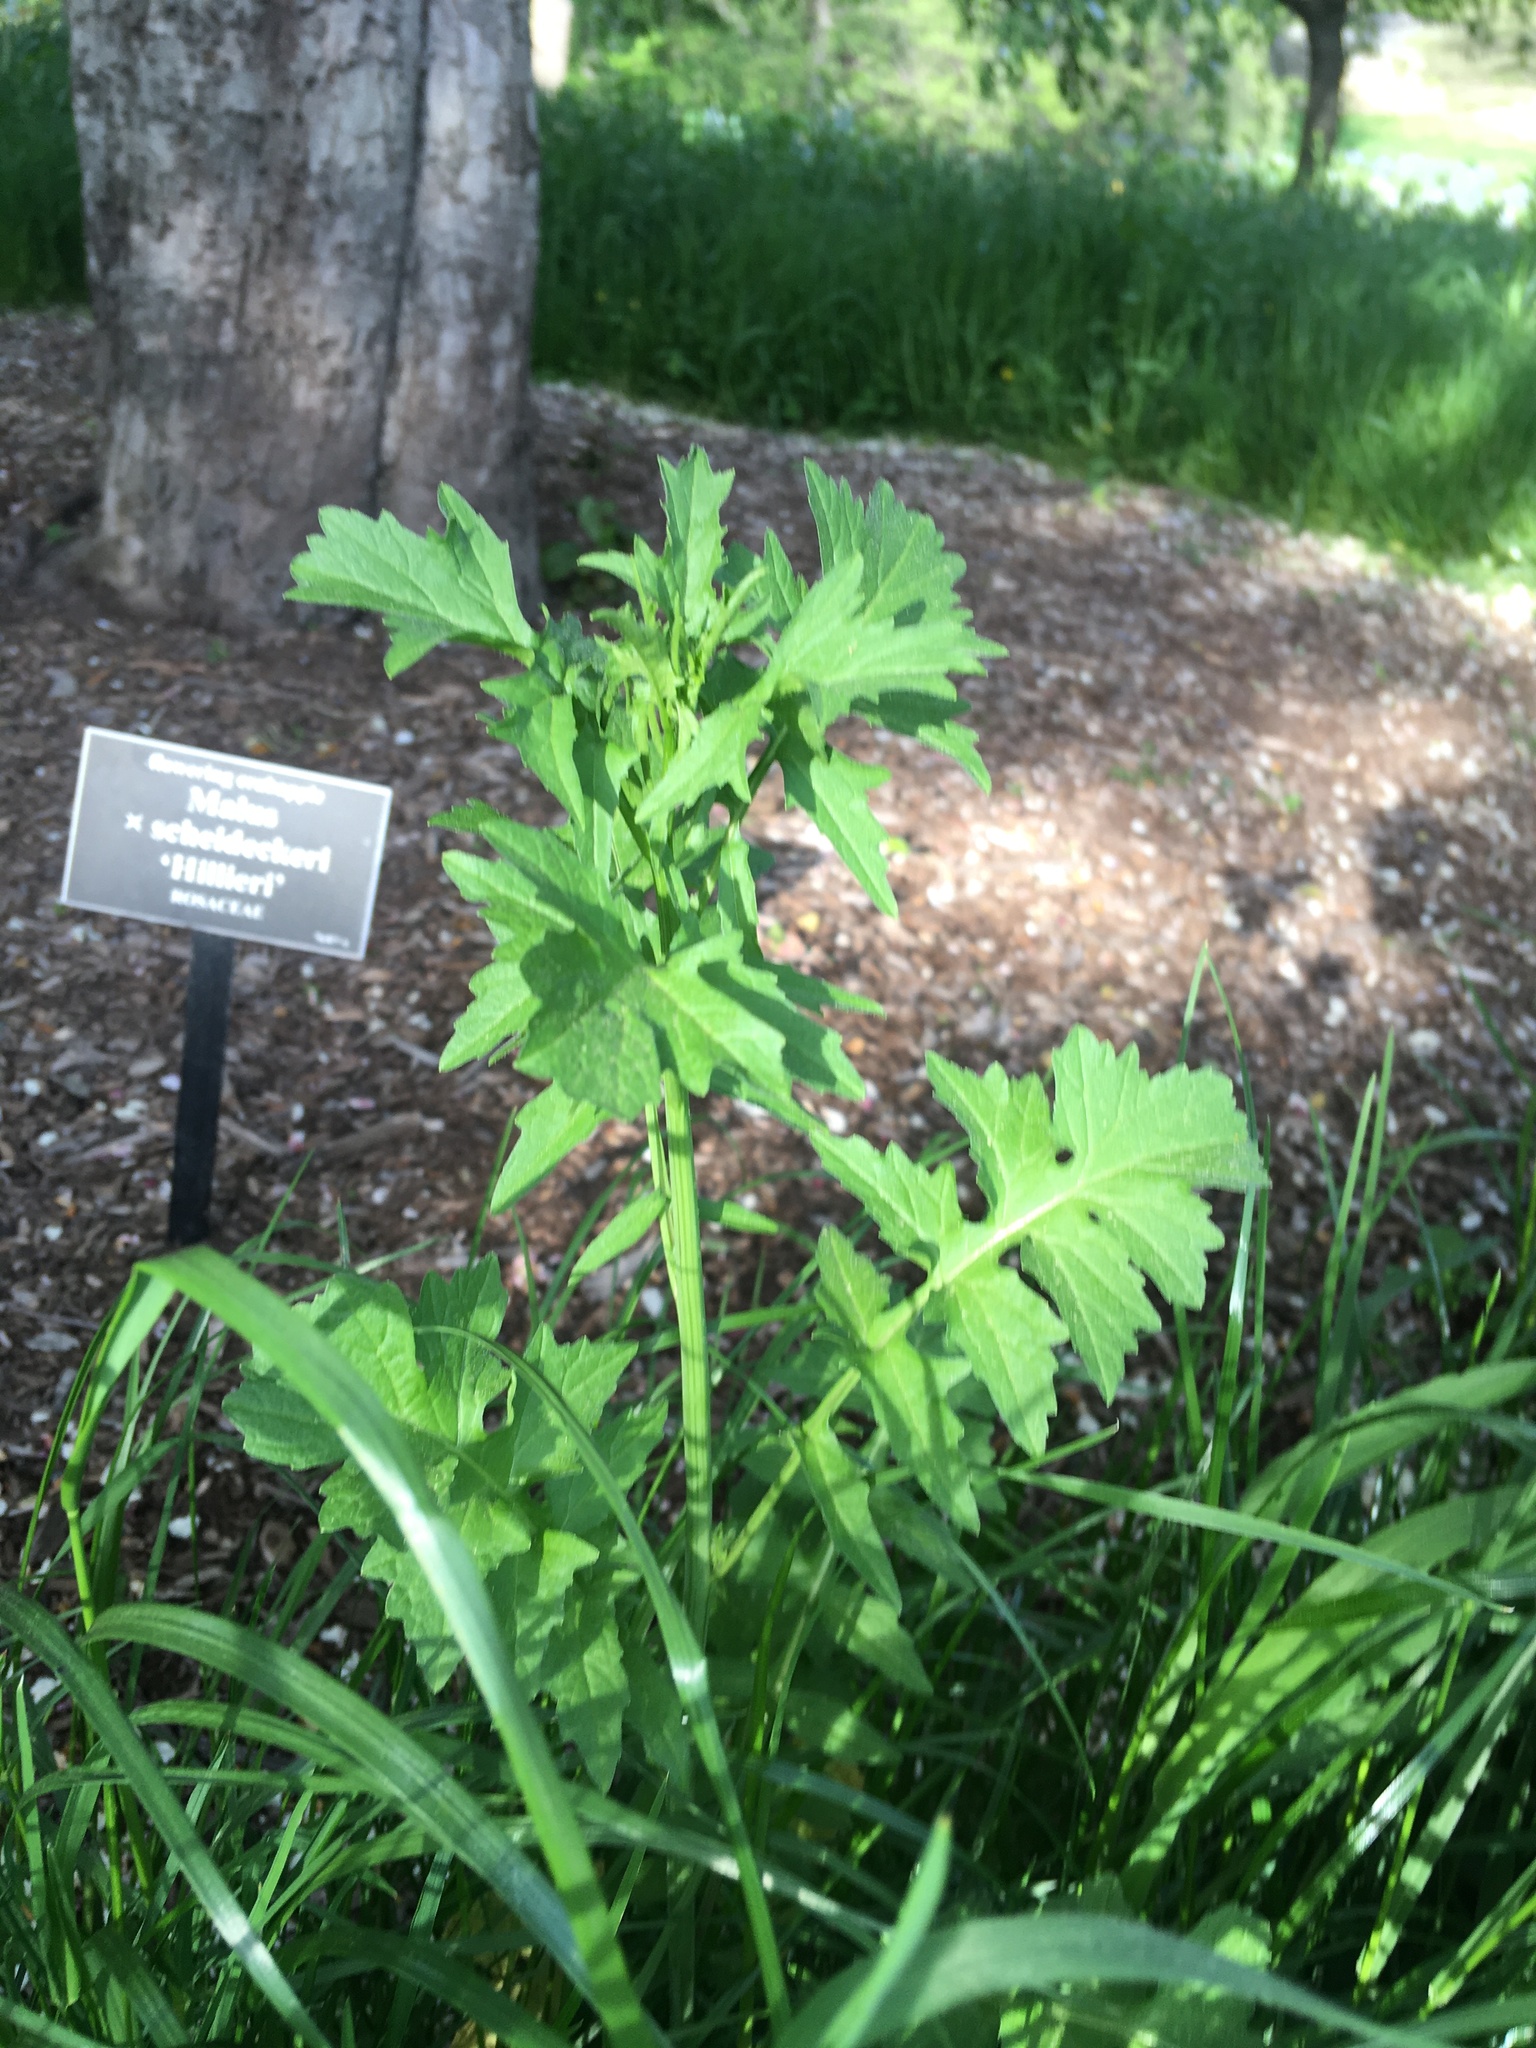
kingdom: Plantae
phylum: Tracheophyta
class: Magnoliopsida
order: Brassicales
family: Brassicaceae
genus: Sisymbrium
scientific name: Sisymbrium officinale
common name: Hedge mustard
